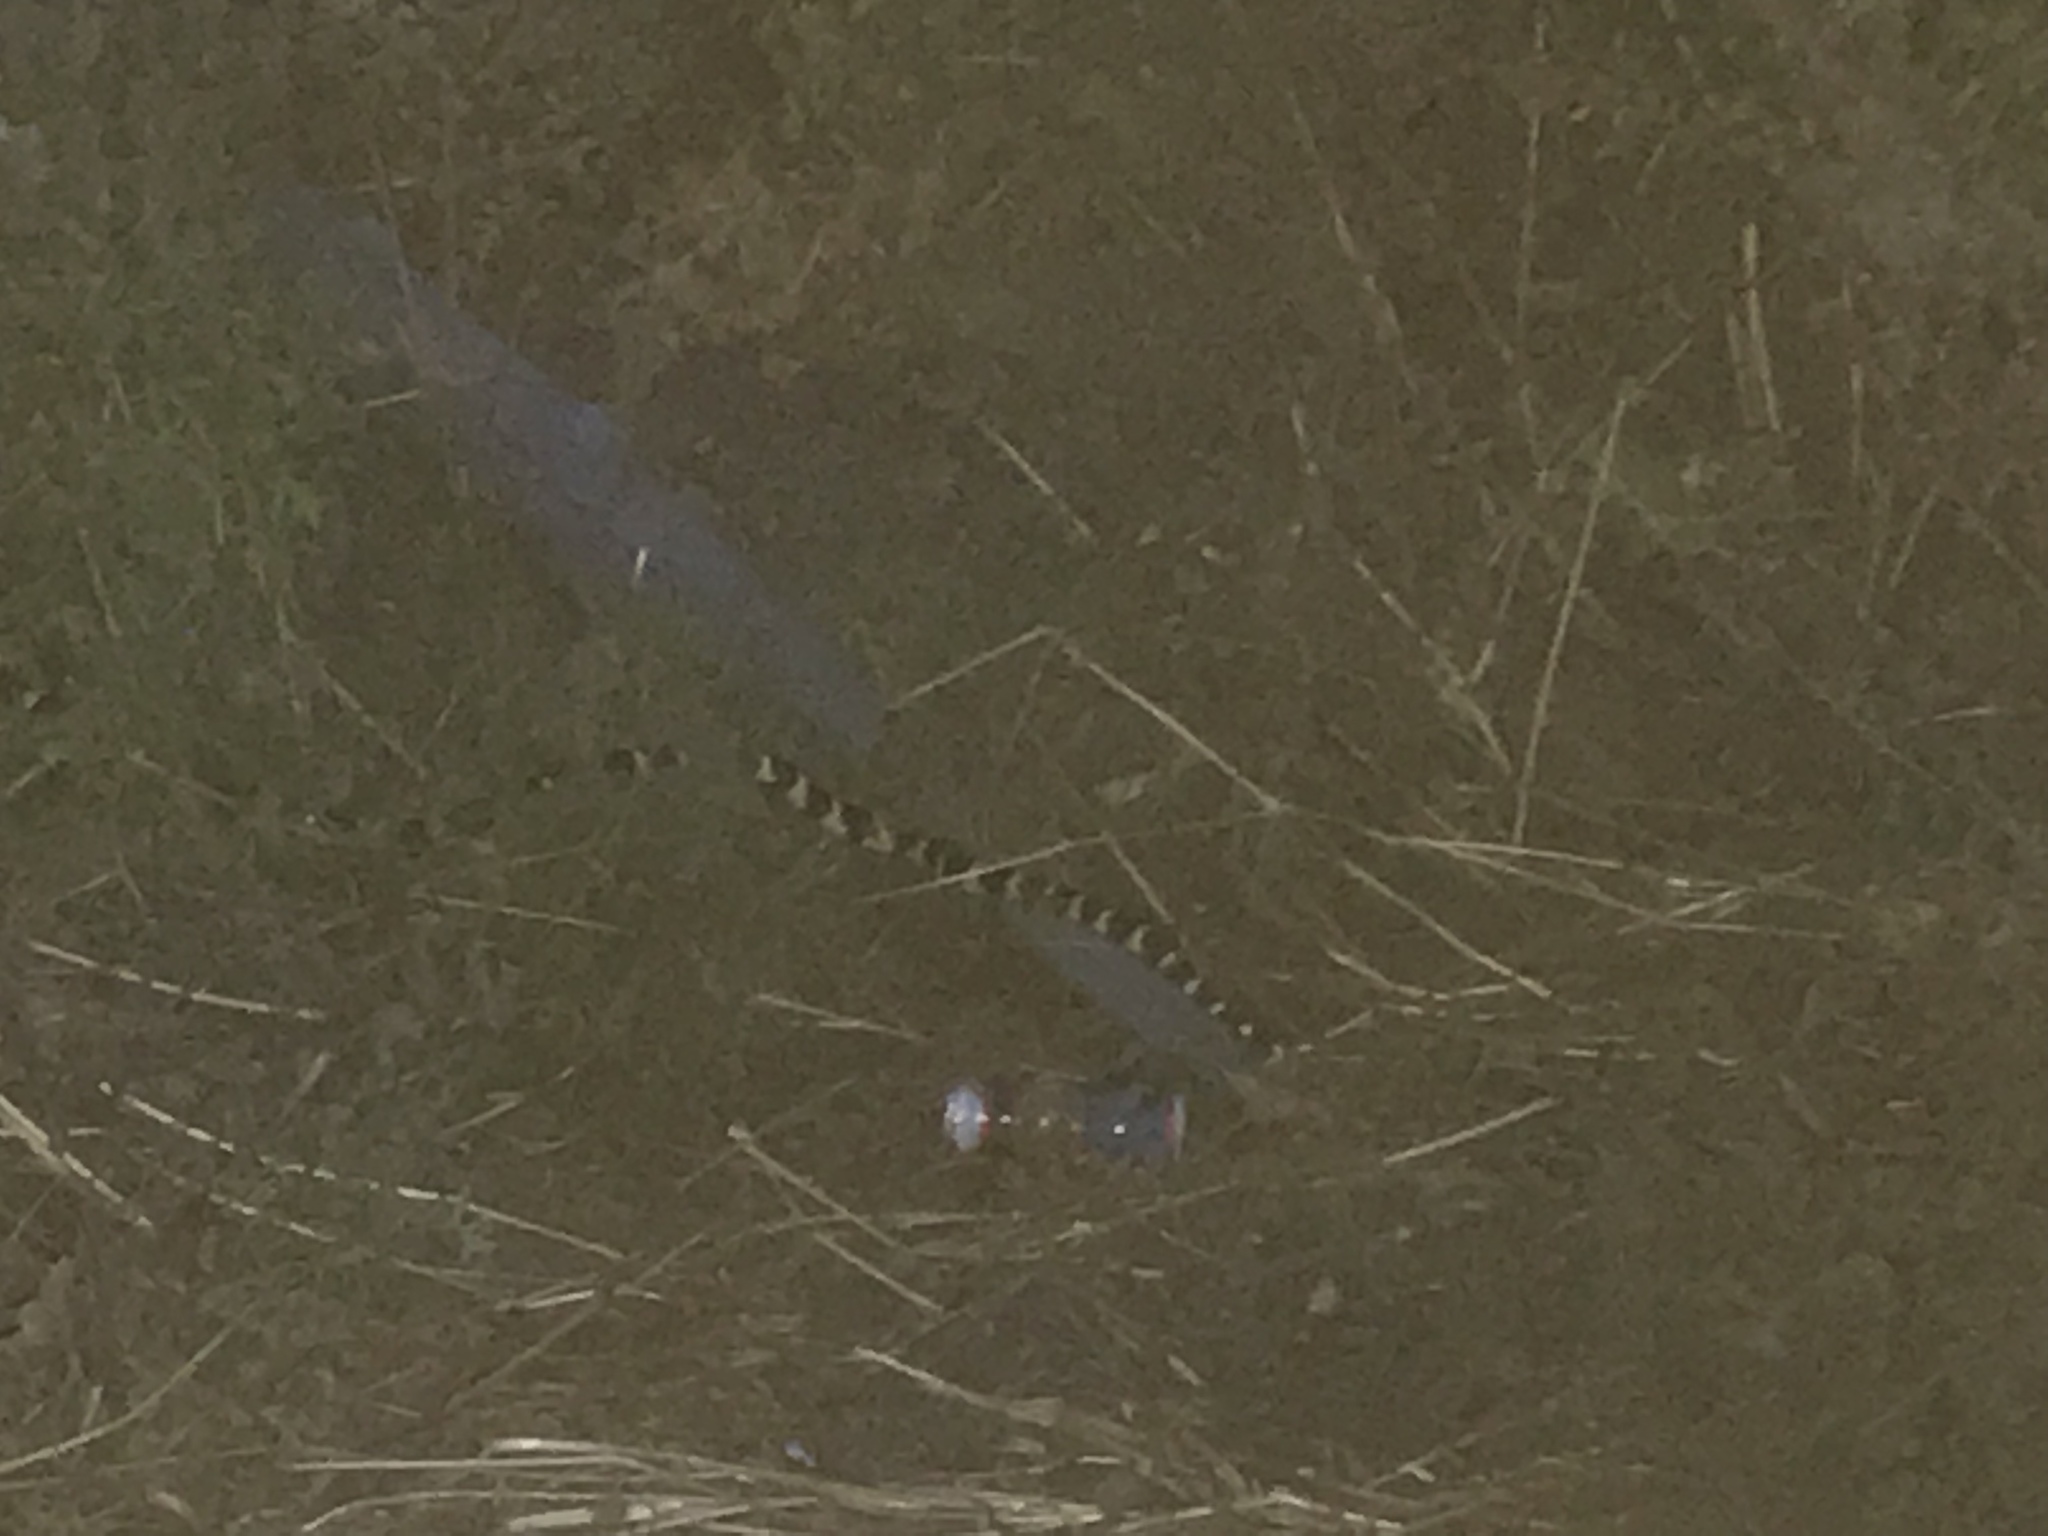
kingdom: Animalia
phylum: Chordata
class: Squamata
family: Colubridae
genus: Lampropeltis
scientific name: Lampropeltis californiae
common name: California kingsnake
